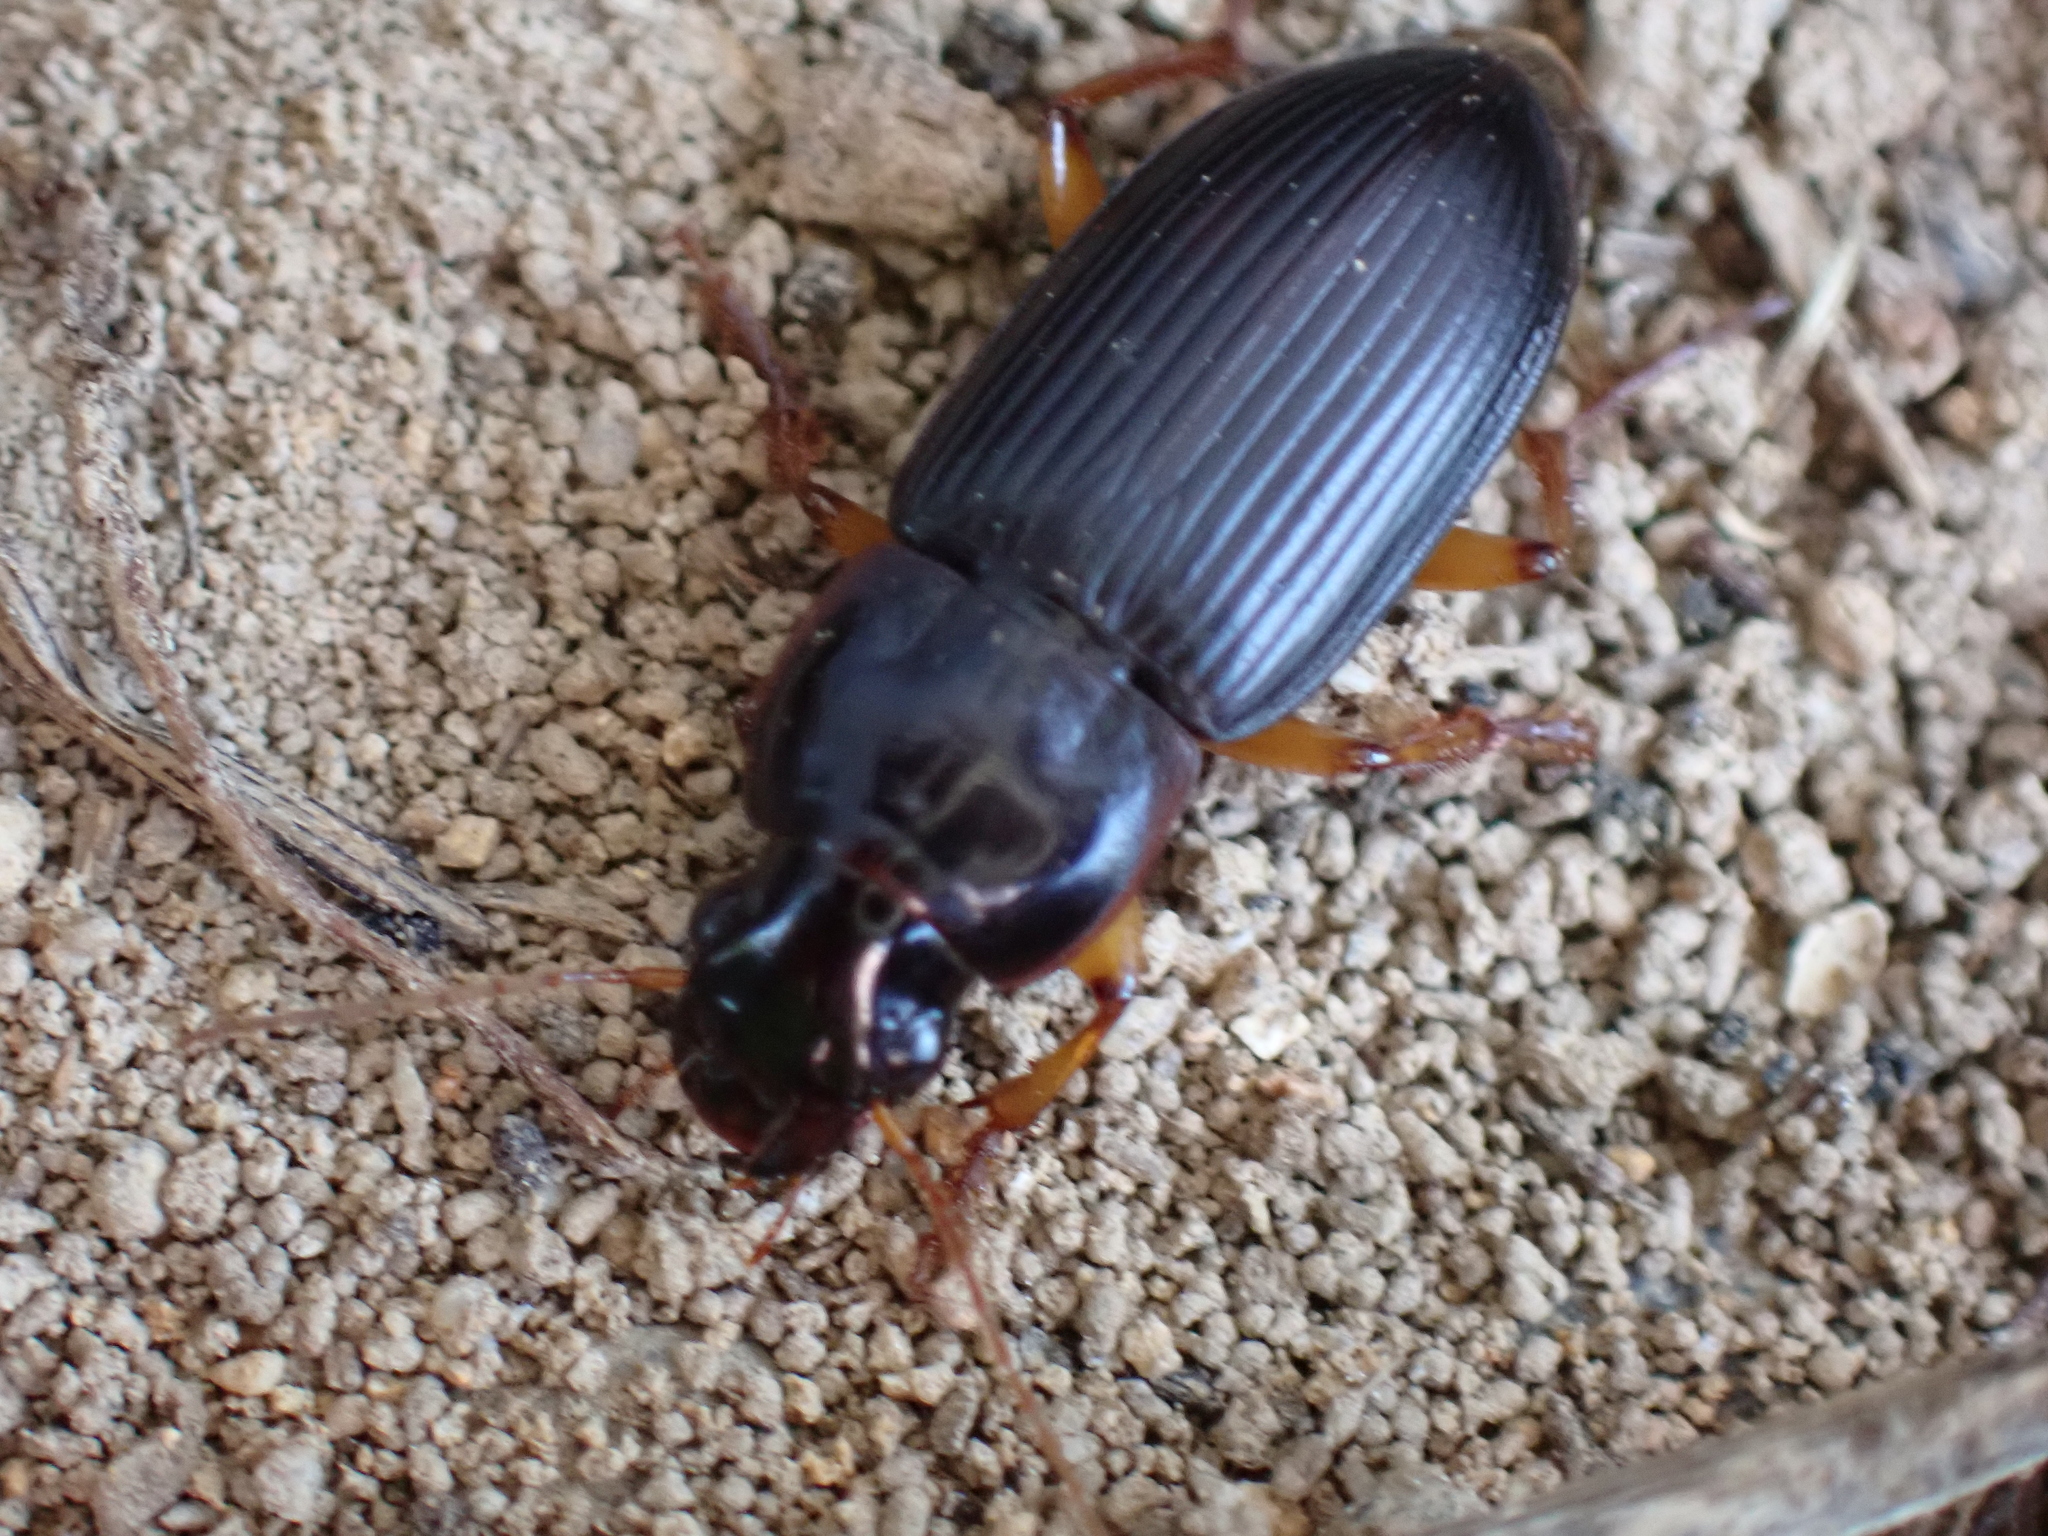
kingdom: Animalia
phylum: Arthropoda
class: Insecta
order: Coleoptera
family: Carabidae
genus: Harpalus
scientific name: Harpalus pensylvanicus
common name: Pennsylvania dingy ground beetle
